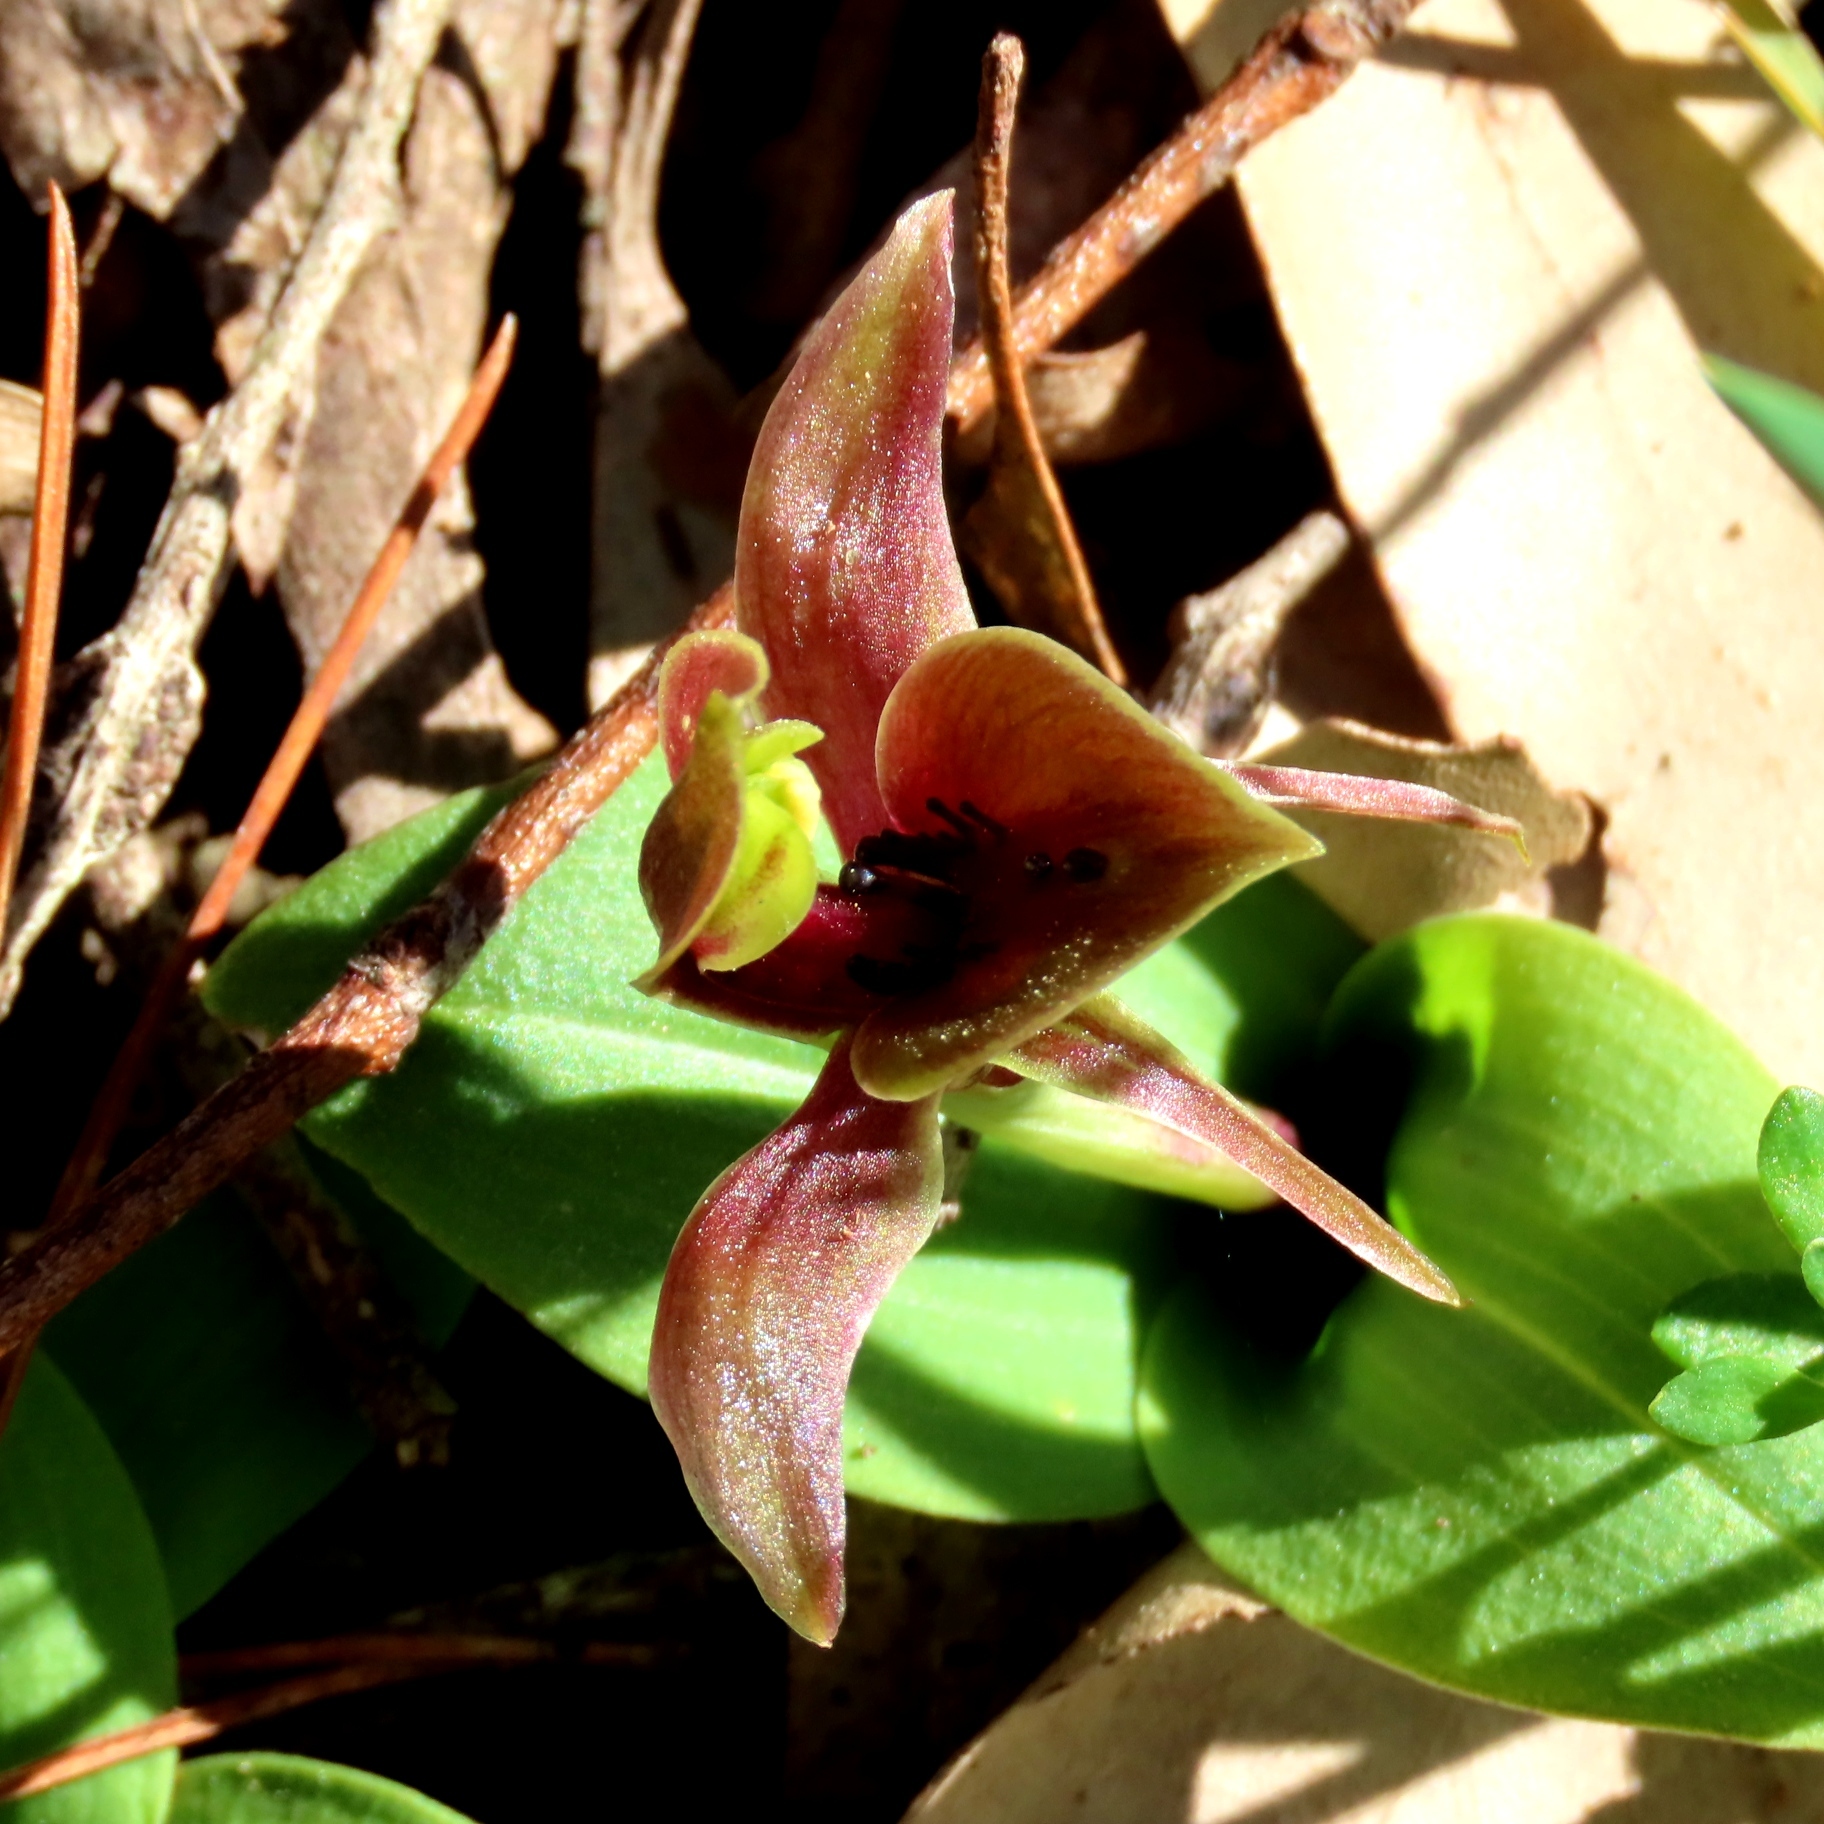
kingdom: Plantae
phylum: Tracheophyta
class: Liliopsida
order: Asparagales
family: Orchidaceae
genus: Chiloglottis
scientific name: Chiloglottis valida
